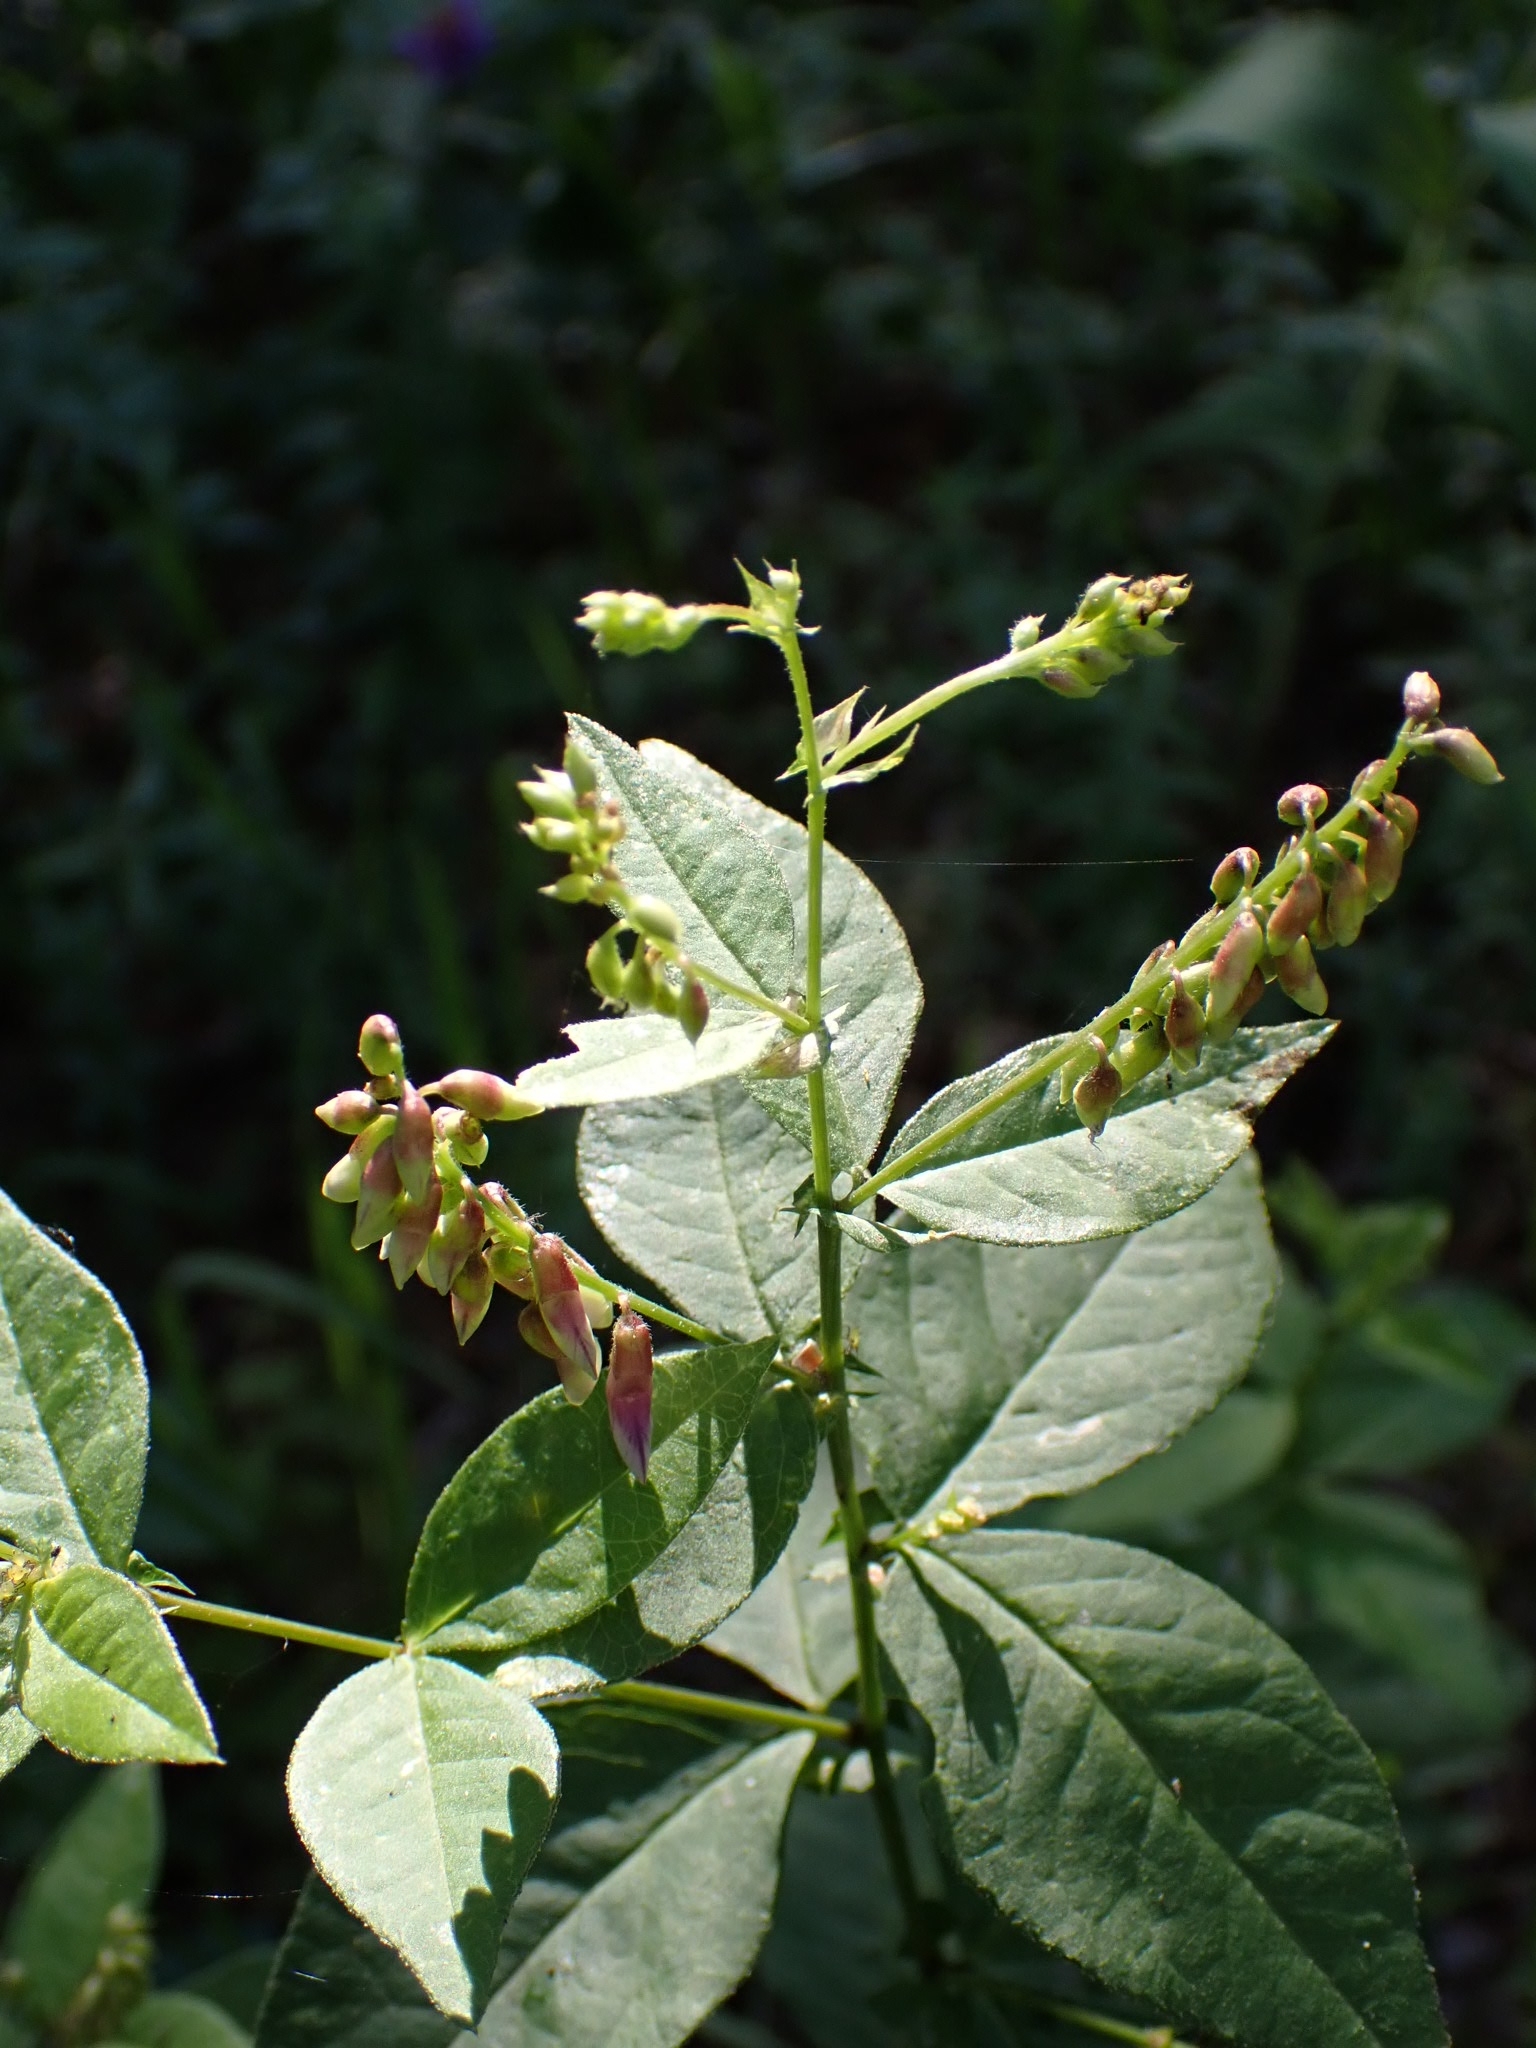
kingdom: Plantae
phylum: Tracheophyta
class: Magnoliopsida
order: Fabales
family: Fabaceae
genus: Vicia
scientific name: Vicia unijuga
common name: Two-leaf vetch
